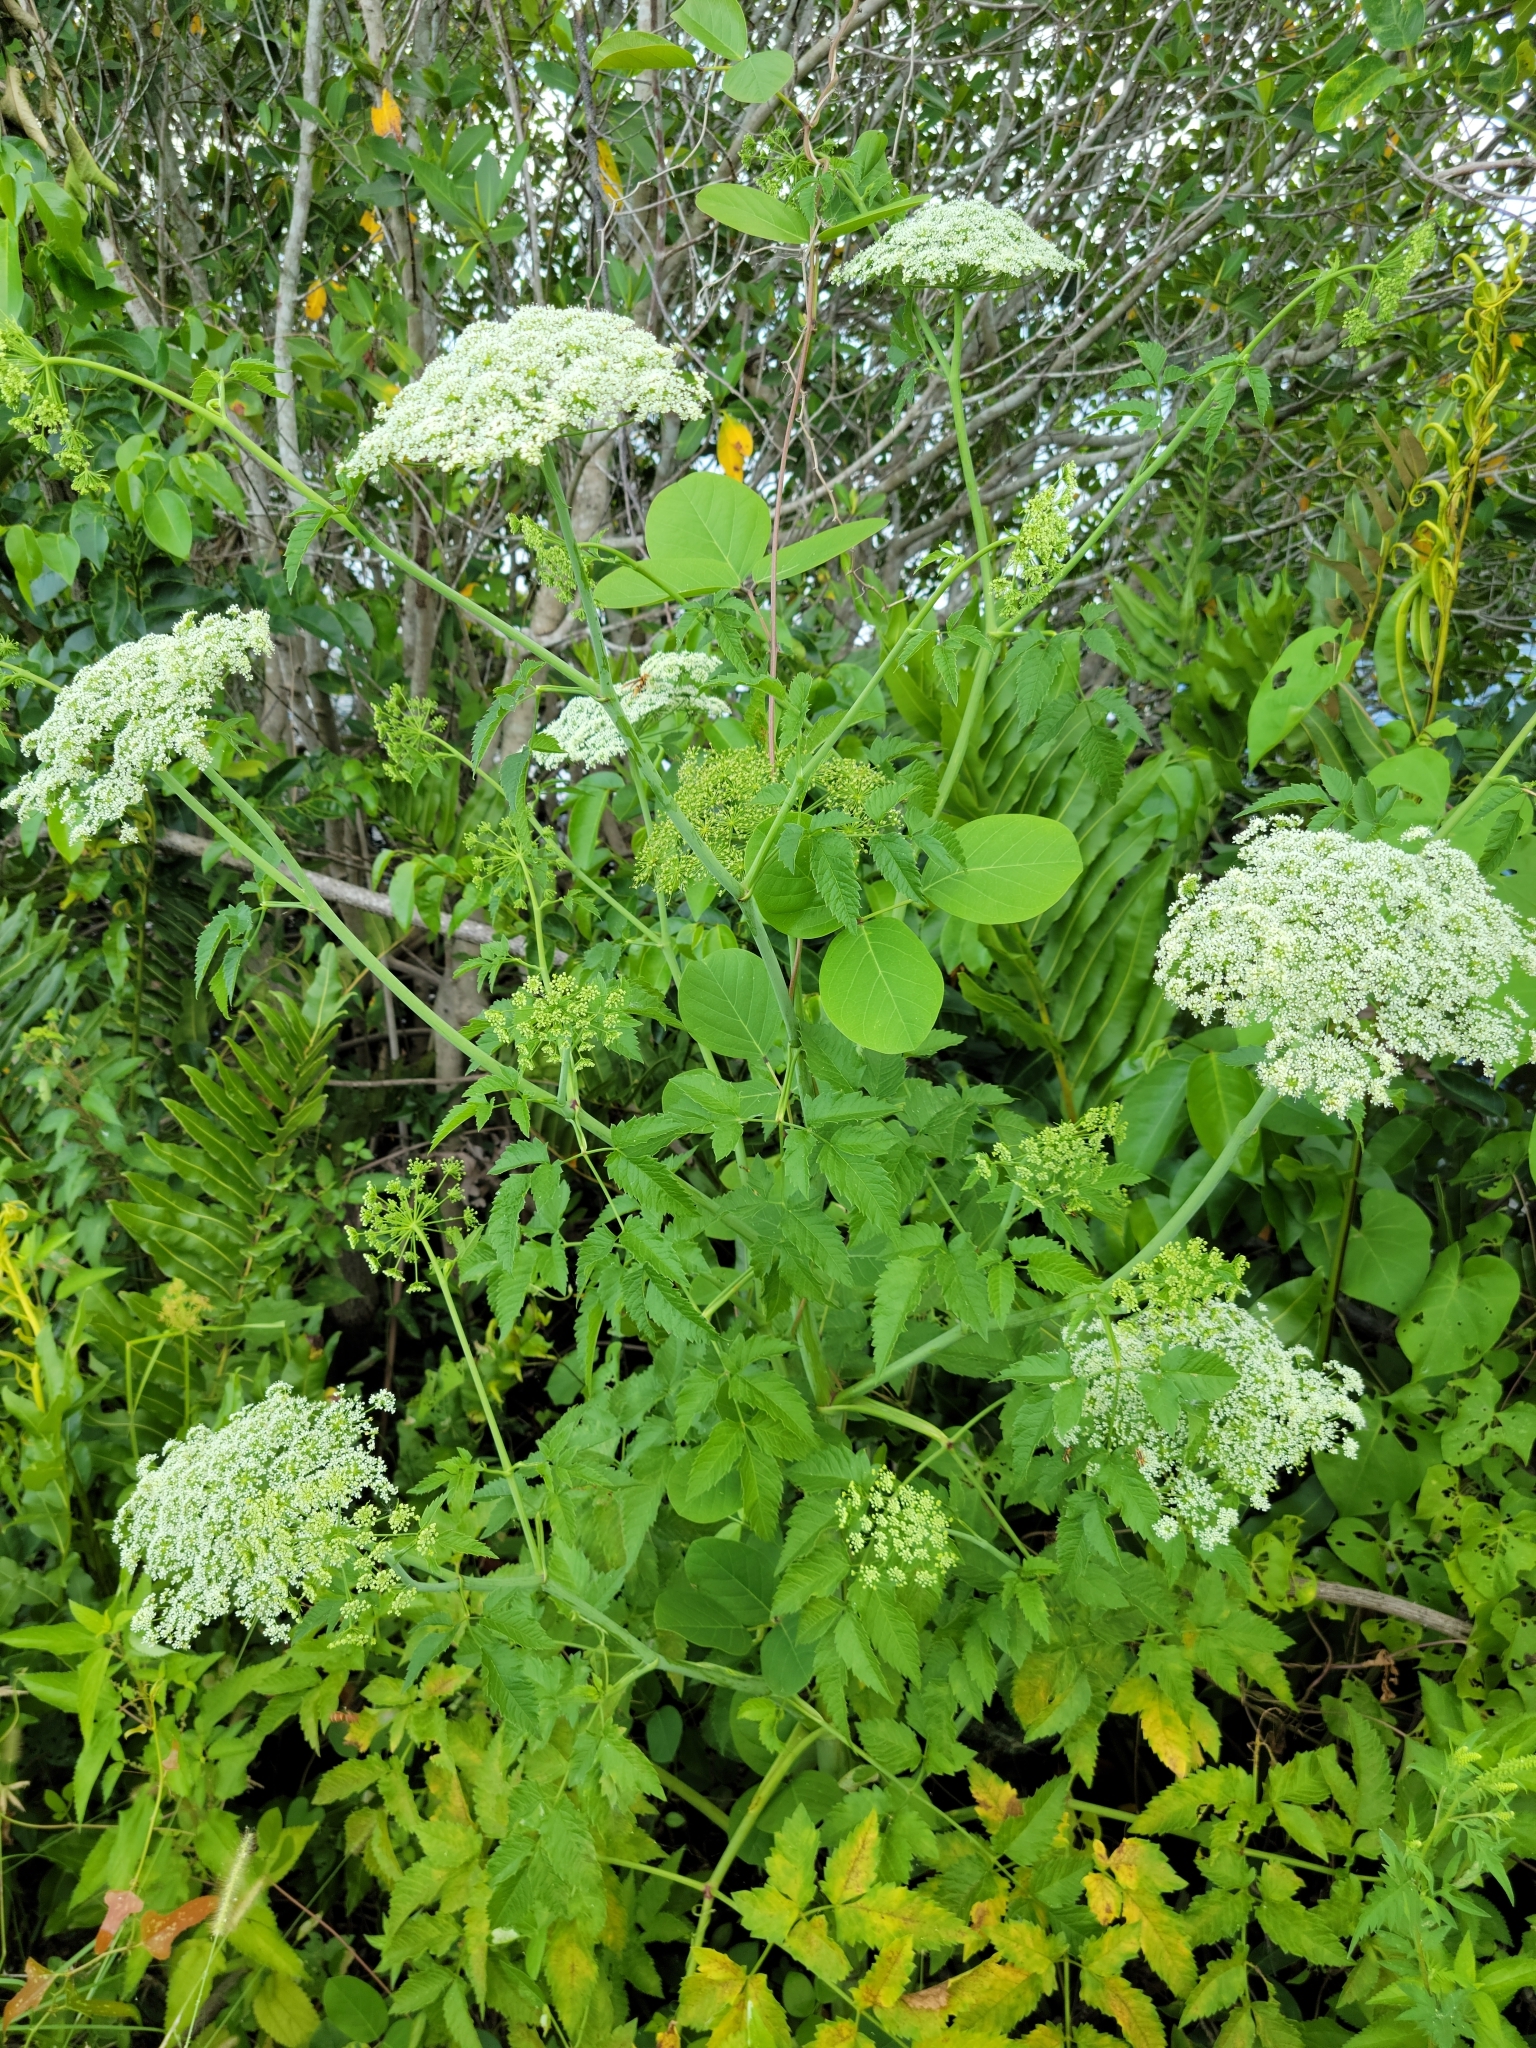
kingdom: Plantae
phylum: Tracheophyta
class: Magnoliopsida
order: Apiales
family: Apiaceae
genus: Cicuta
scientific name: Cicuta douglasii
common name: Western water-hemlock
